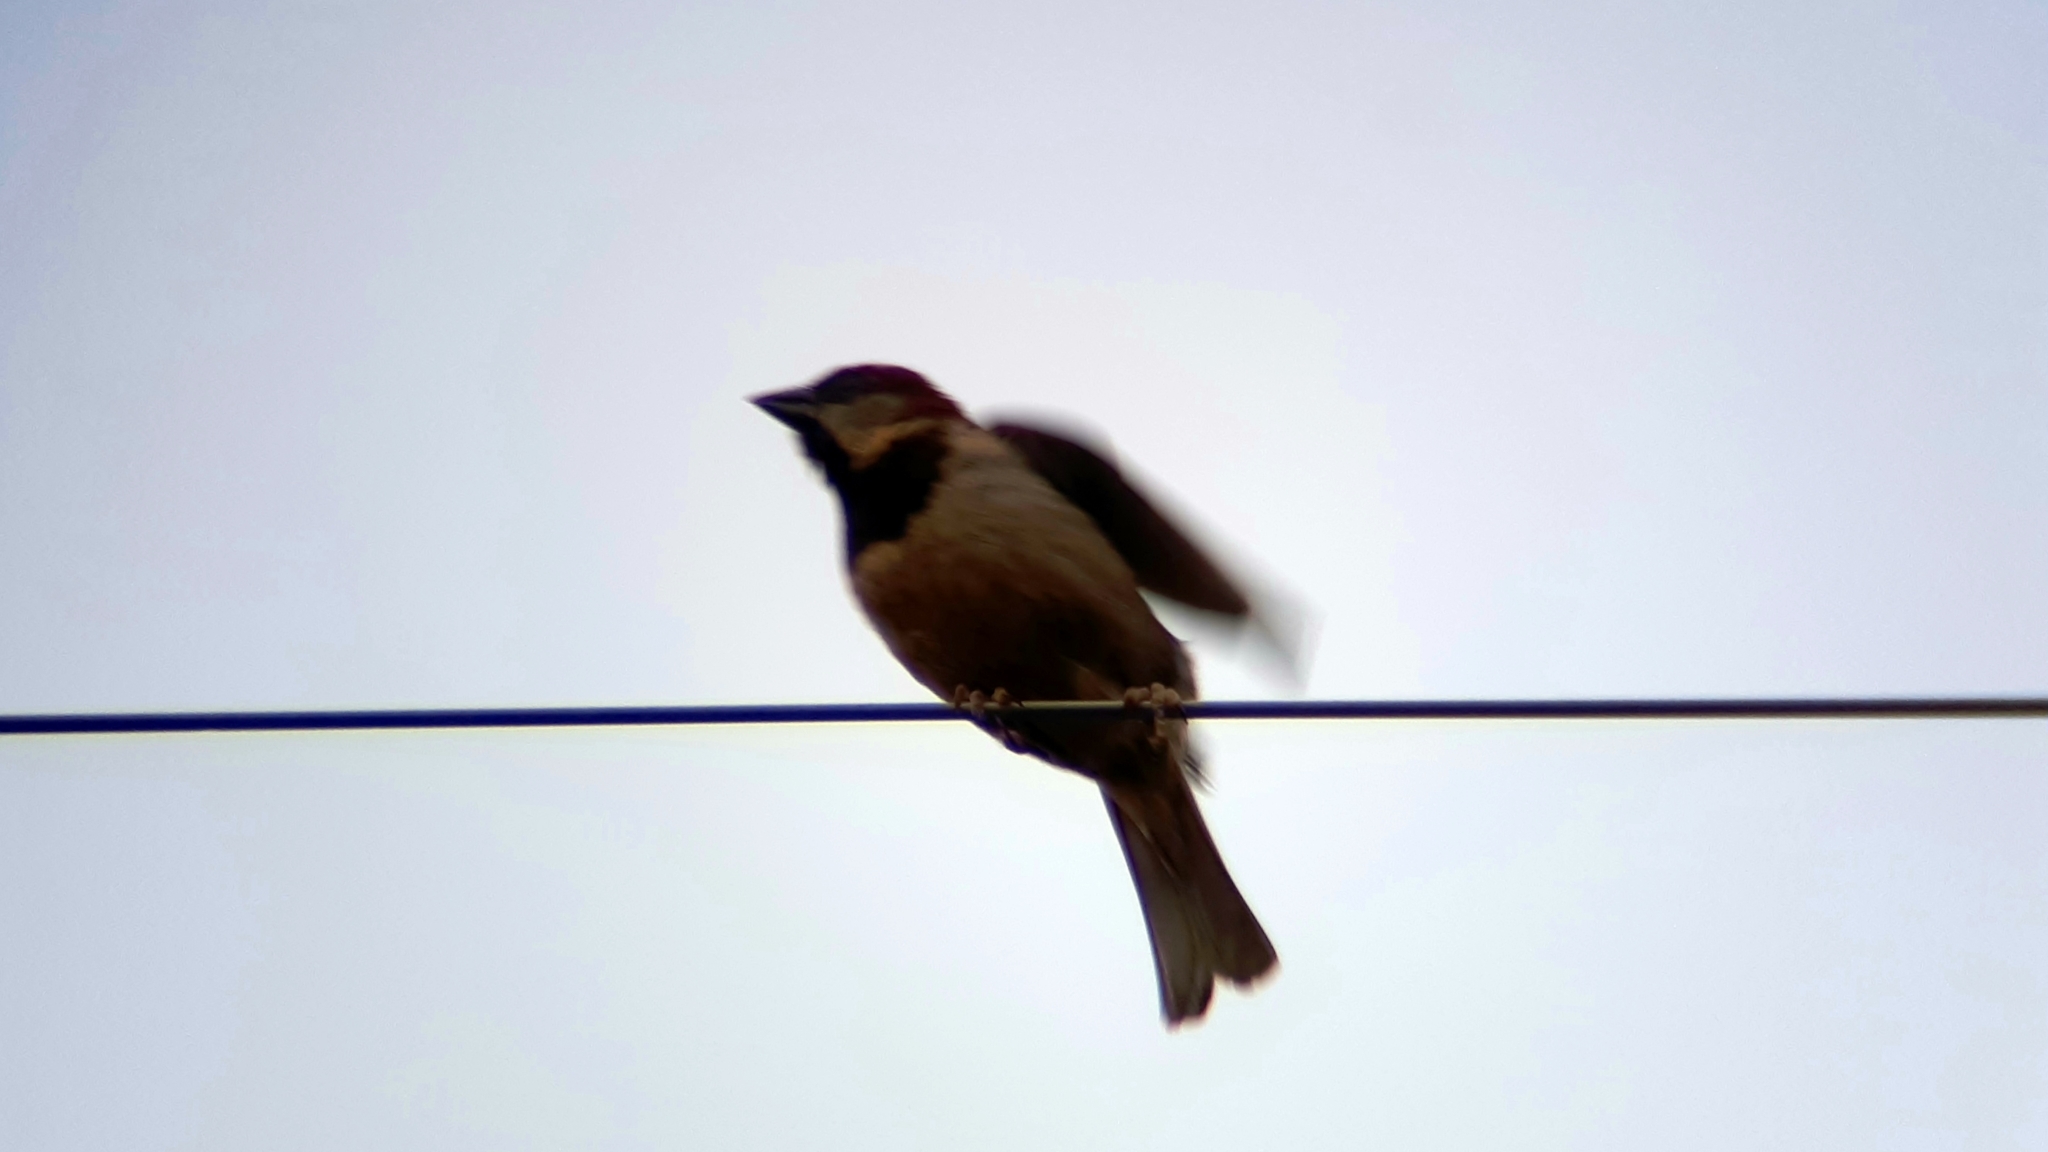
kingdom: Animalia
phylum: Chordata
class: Aves
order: Passeriformes
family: Passeridae
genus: Passer
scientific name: Passer domesticus
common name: House sparrow
